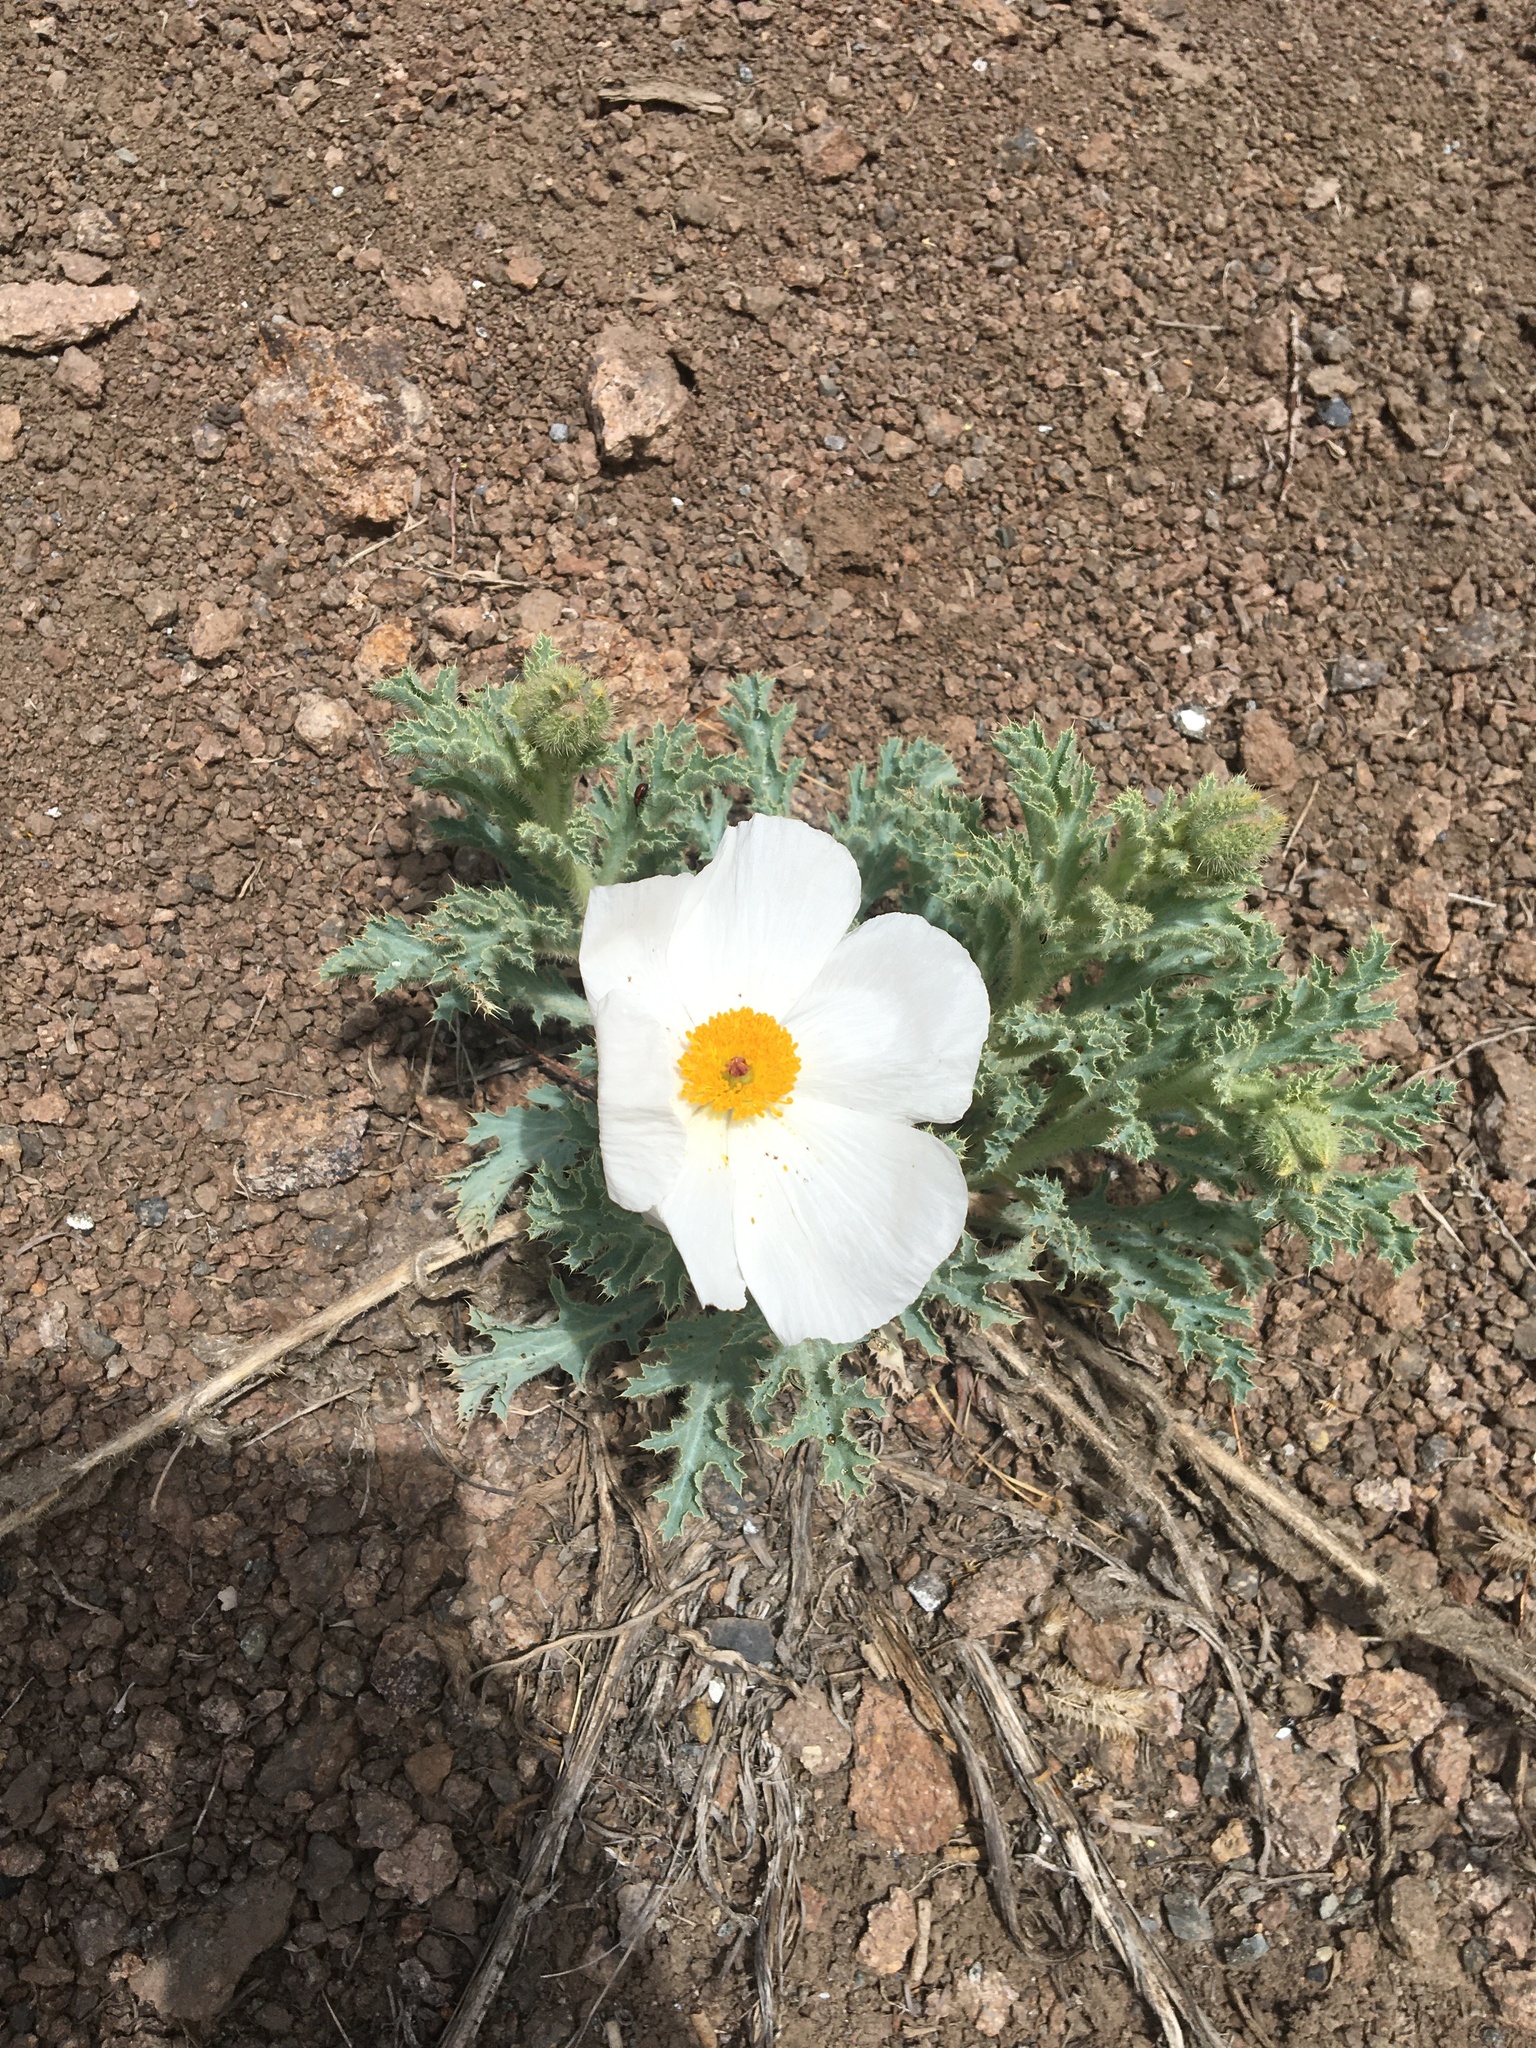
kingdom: Plantae
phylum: Tracheophyta
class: Magnoliopsida
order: Ranunculales
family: Papaveraceae
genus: Argemone
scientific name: Argemone munita
